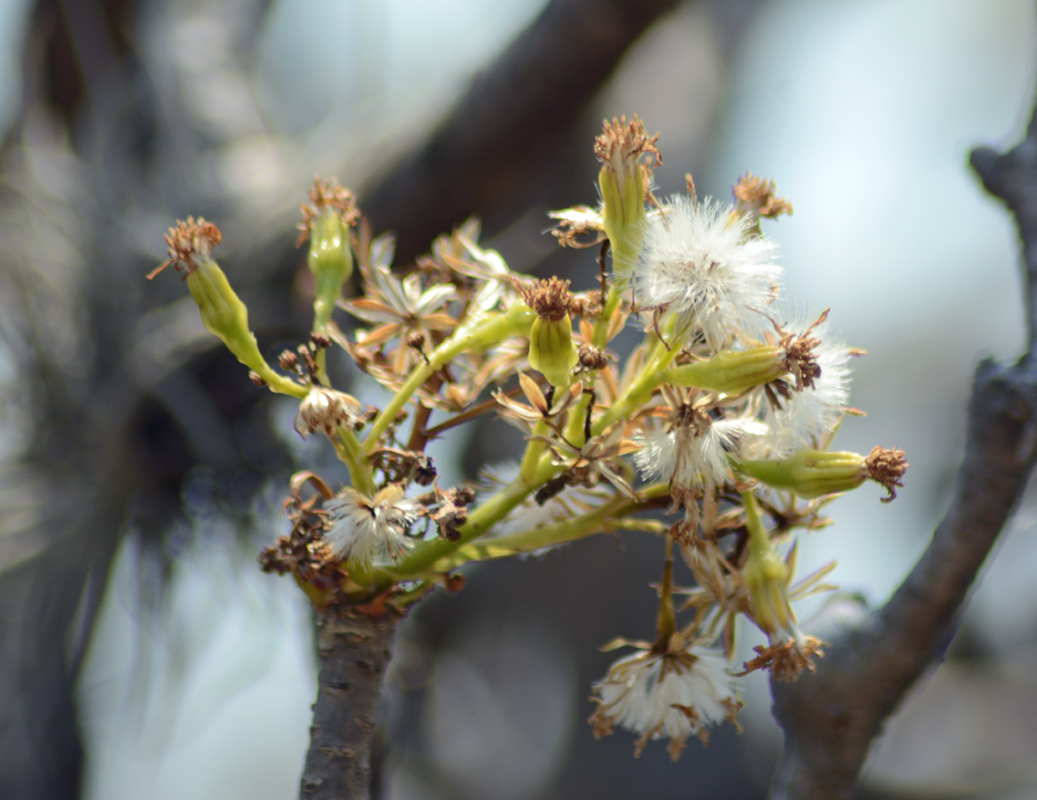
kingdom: Plantae
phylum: Tracheophyta
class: Magnoliopsida
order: Asterales
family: Asteraceae
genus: Pittocaulon
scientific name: Pittocaulon praecox
